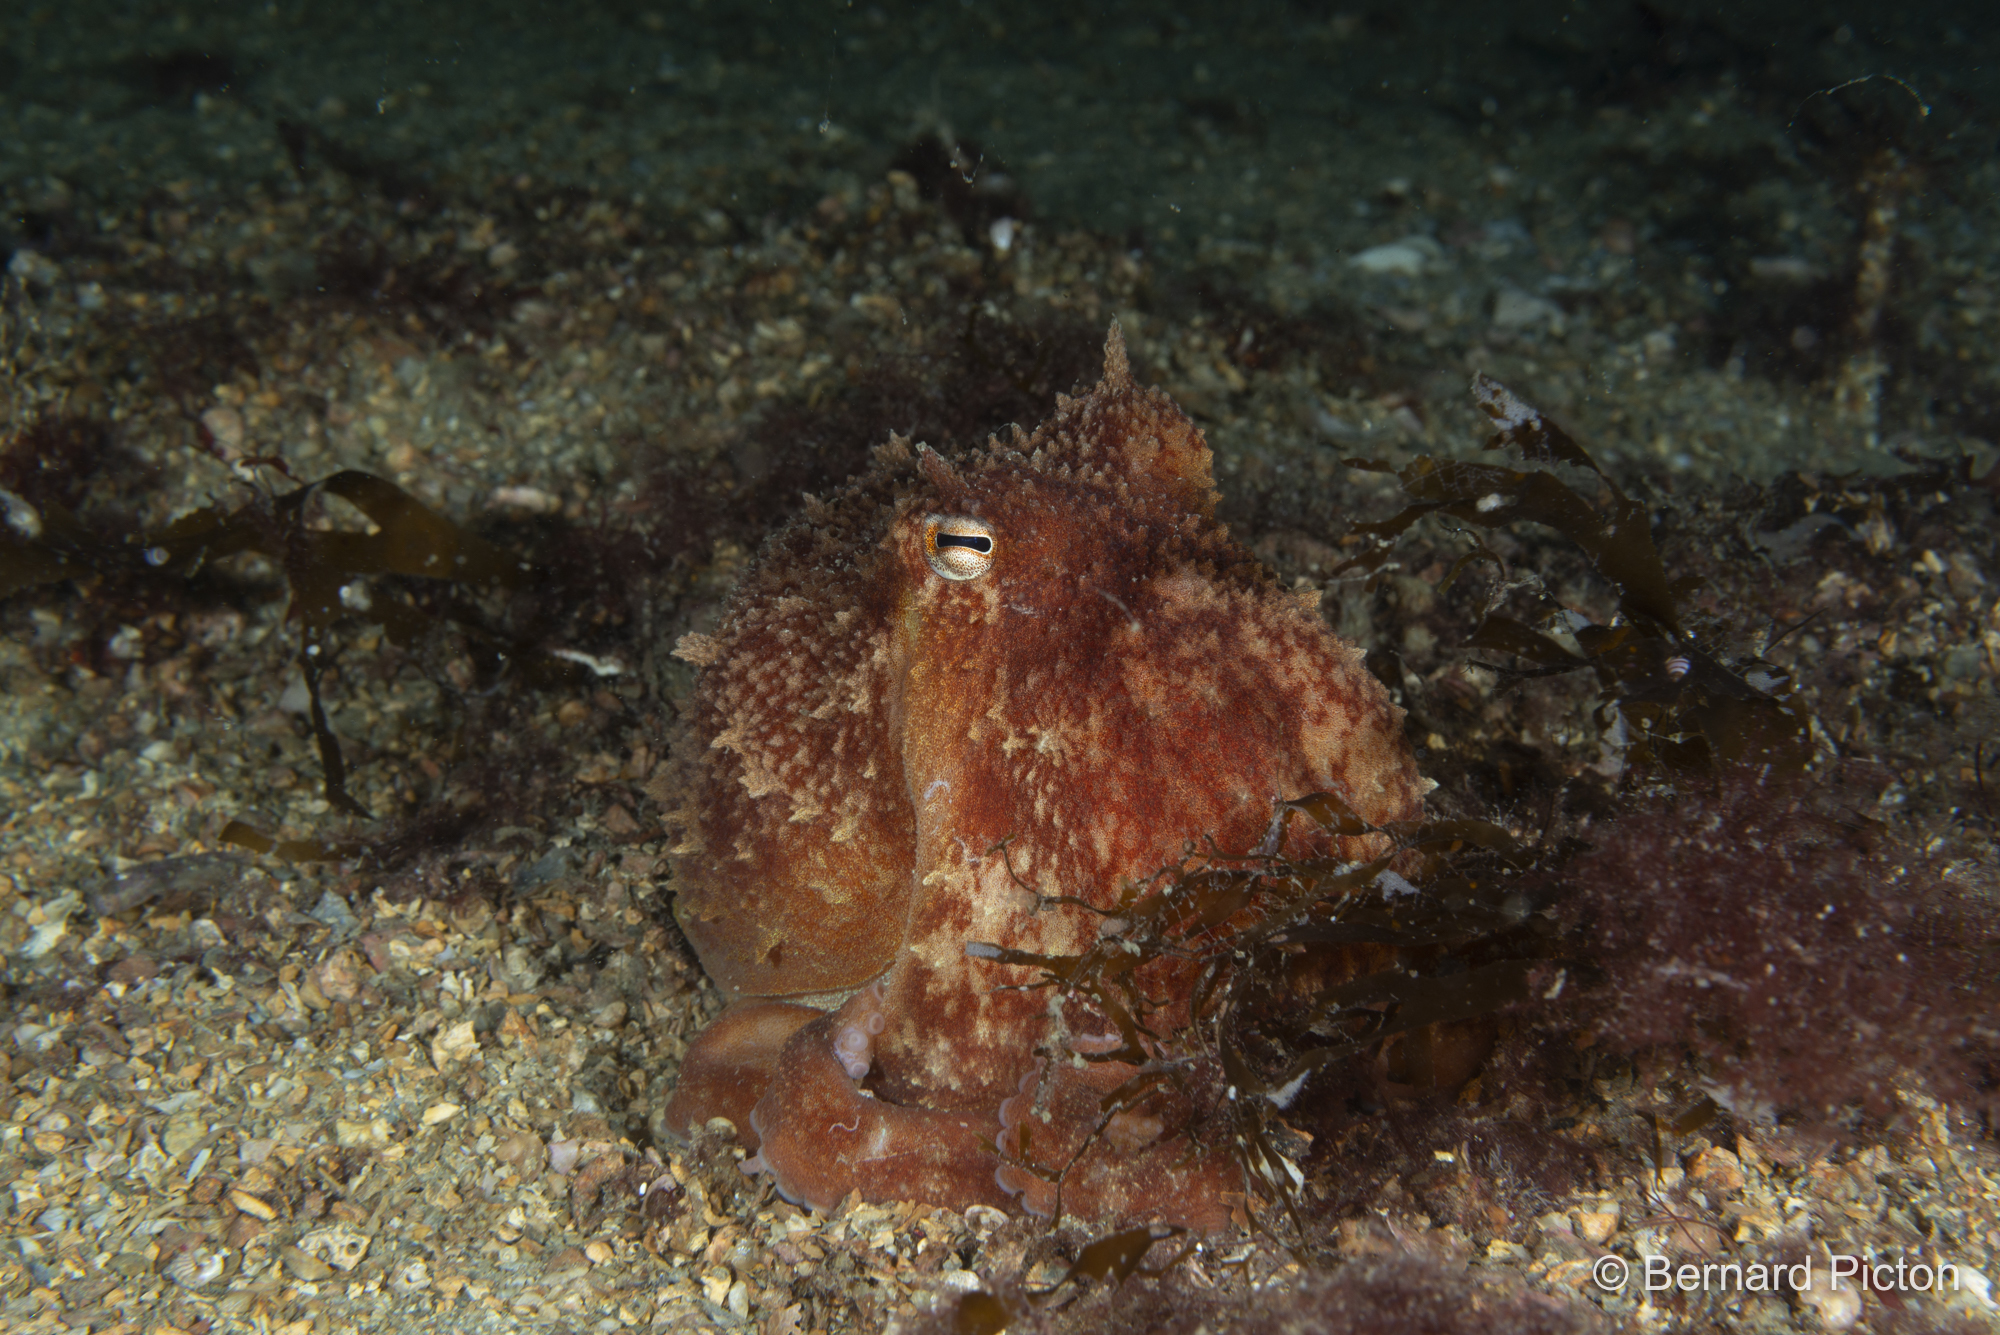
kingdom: Animalia
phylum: Mollusca
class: Cephalopoda
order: Octopoda
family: Eledonidae
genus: Eledone
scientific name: Eledone cirrhosa
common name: Curled octopus
